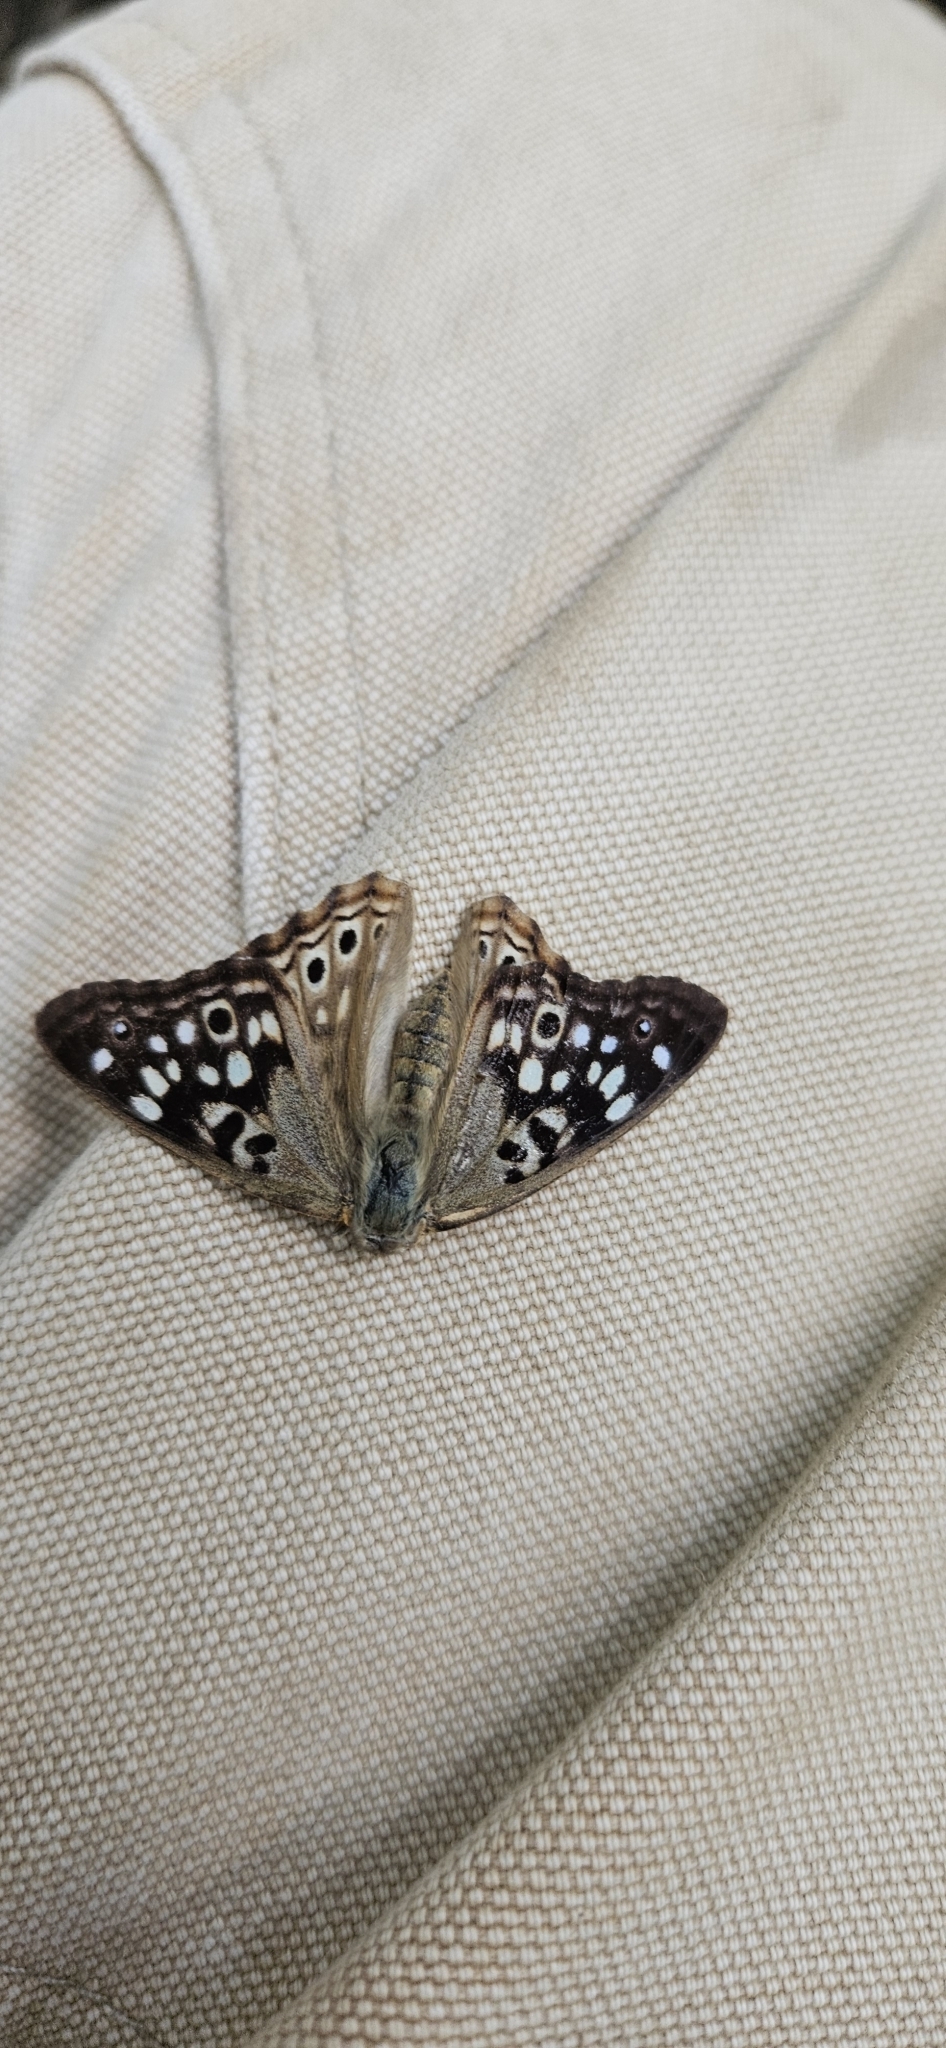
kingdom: Animalia
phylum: Arthropoda
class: Insecta
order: Lepidoptera
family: Nymphalidae
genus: Asterocampa
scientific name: Asterocampa celtis
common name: Hackberry emperor
